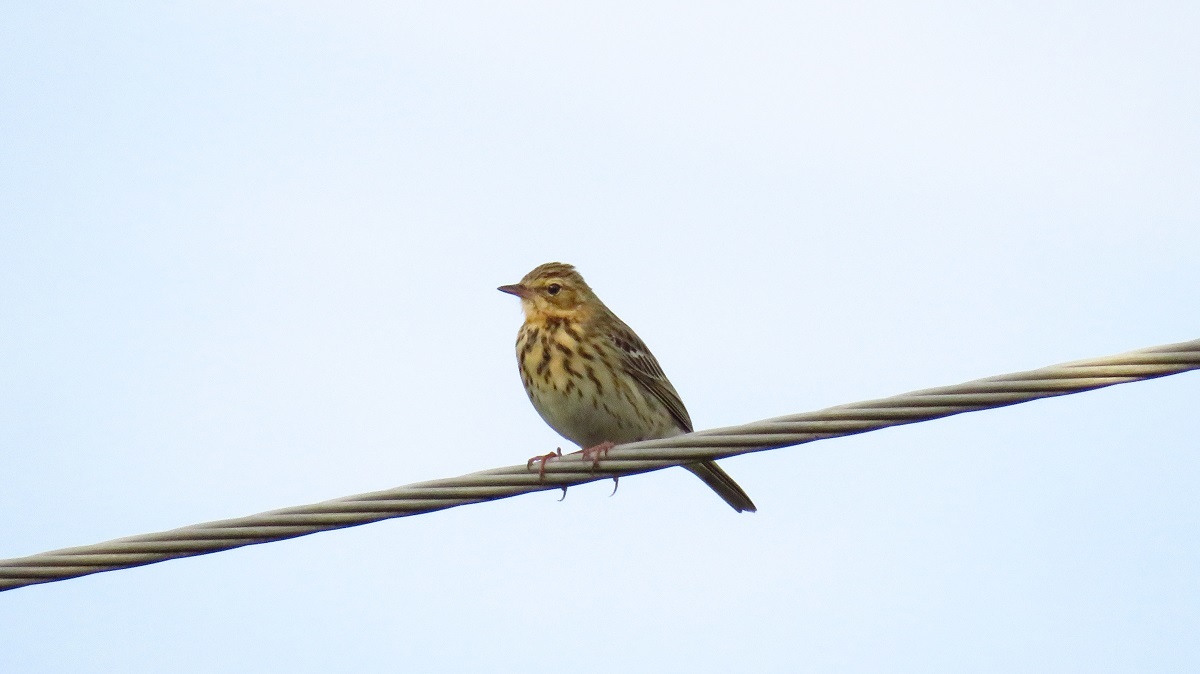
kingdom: Animalia
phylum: Chordata
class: Aves
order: Passeriformes
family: Motacillidae
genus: Anthus
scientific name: Anthus trivialis
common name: Tree pipit
